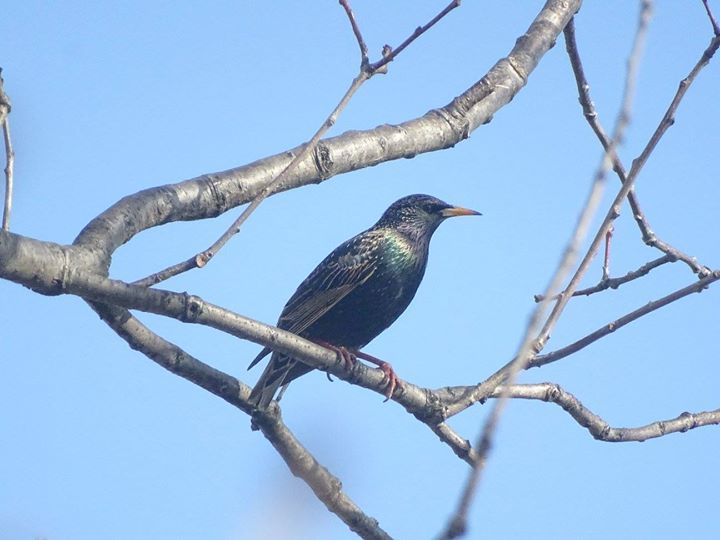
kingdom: Animalia
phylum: Chordata
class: Aves
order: Passeriformes
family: Sturnidae
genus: Sturnus
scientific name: Sturnus vulgaris
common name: Common starling
